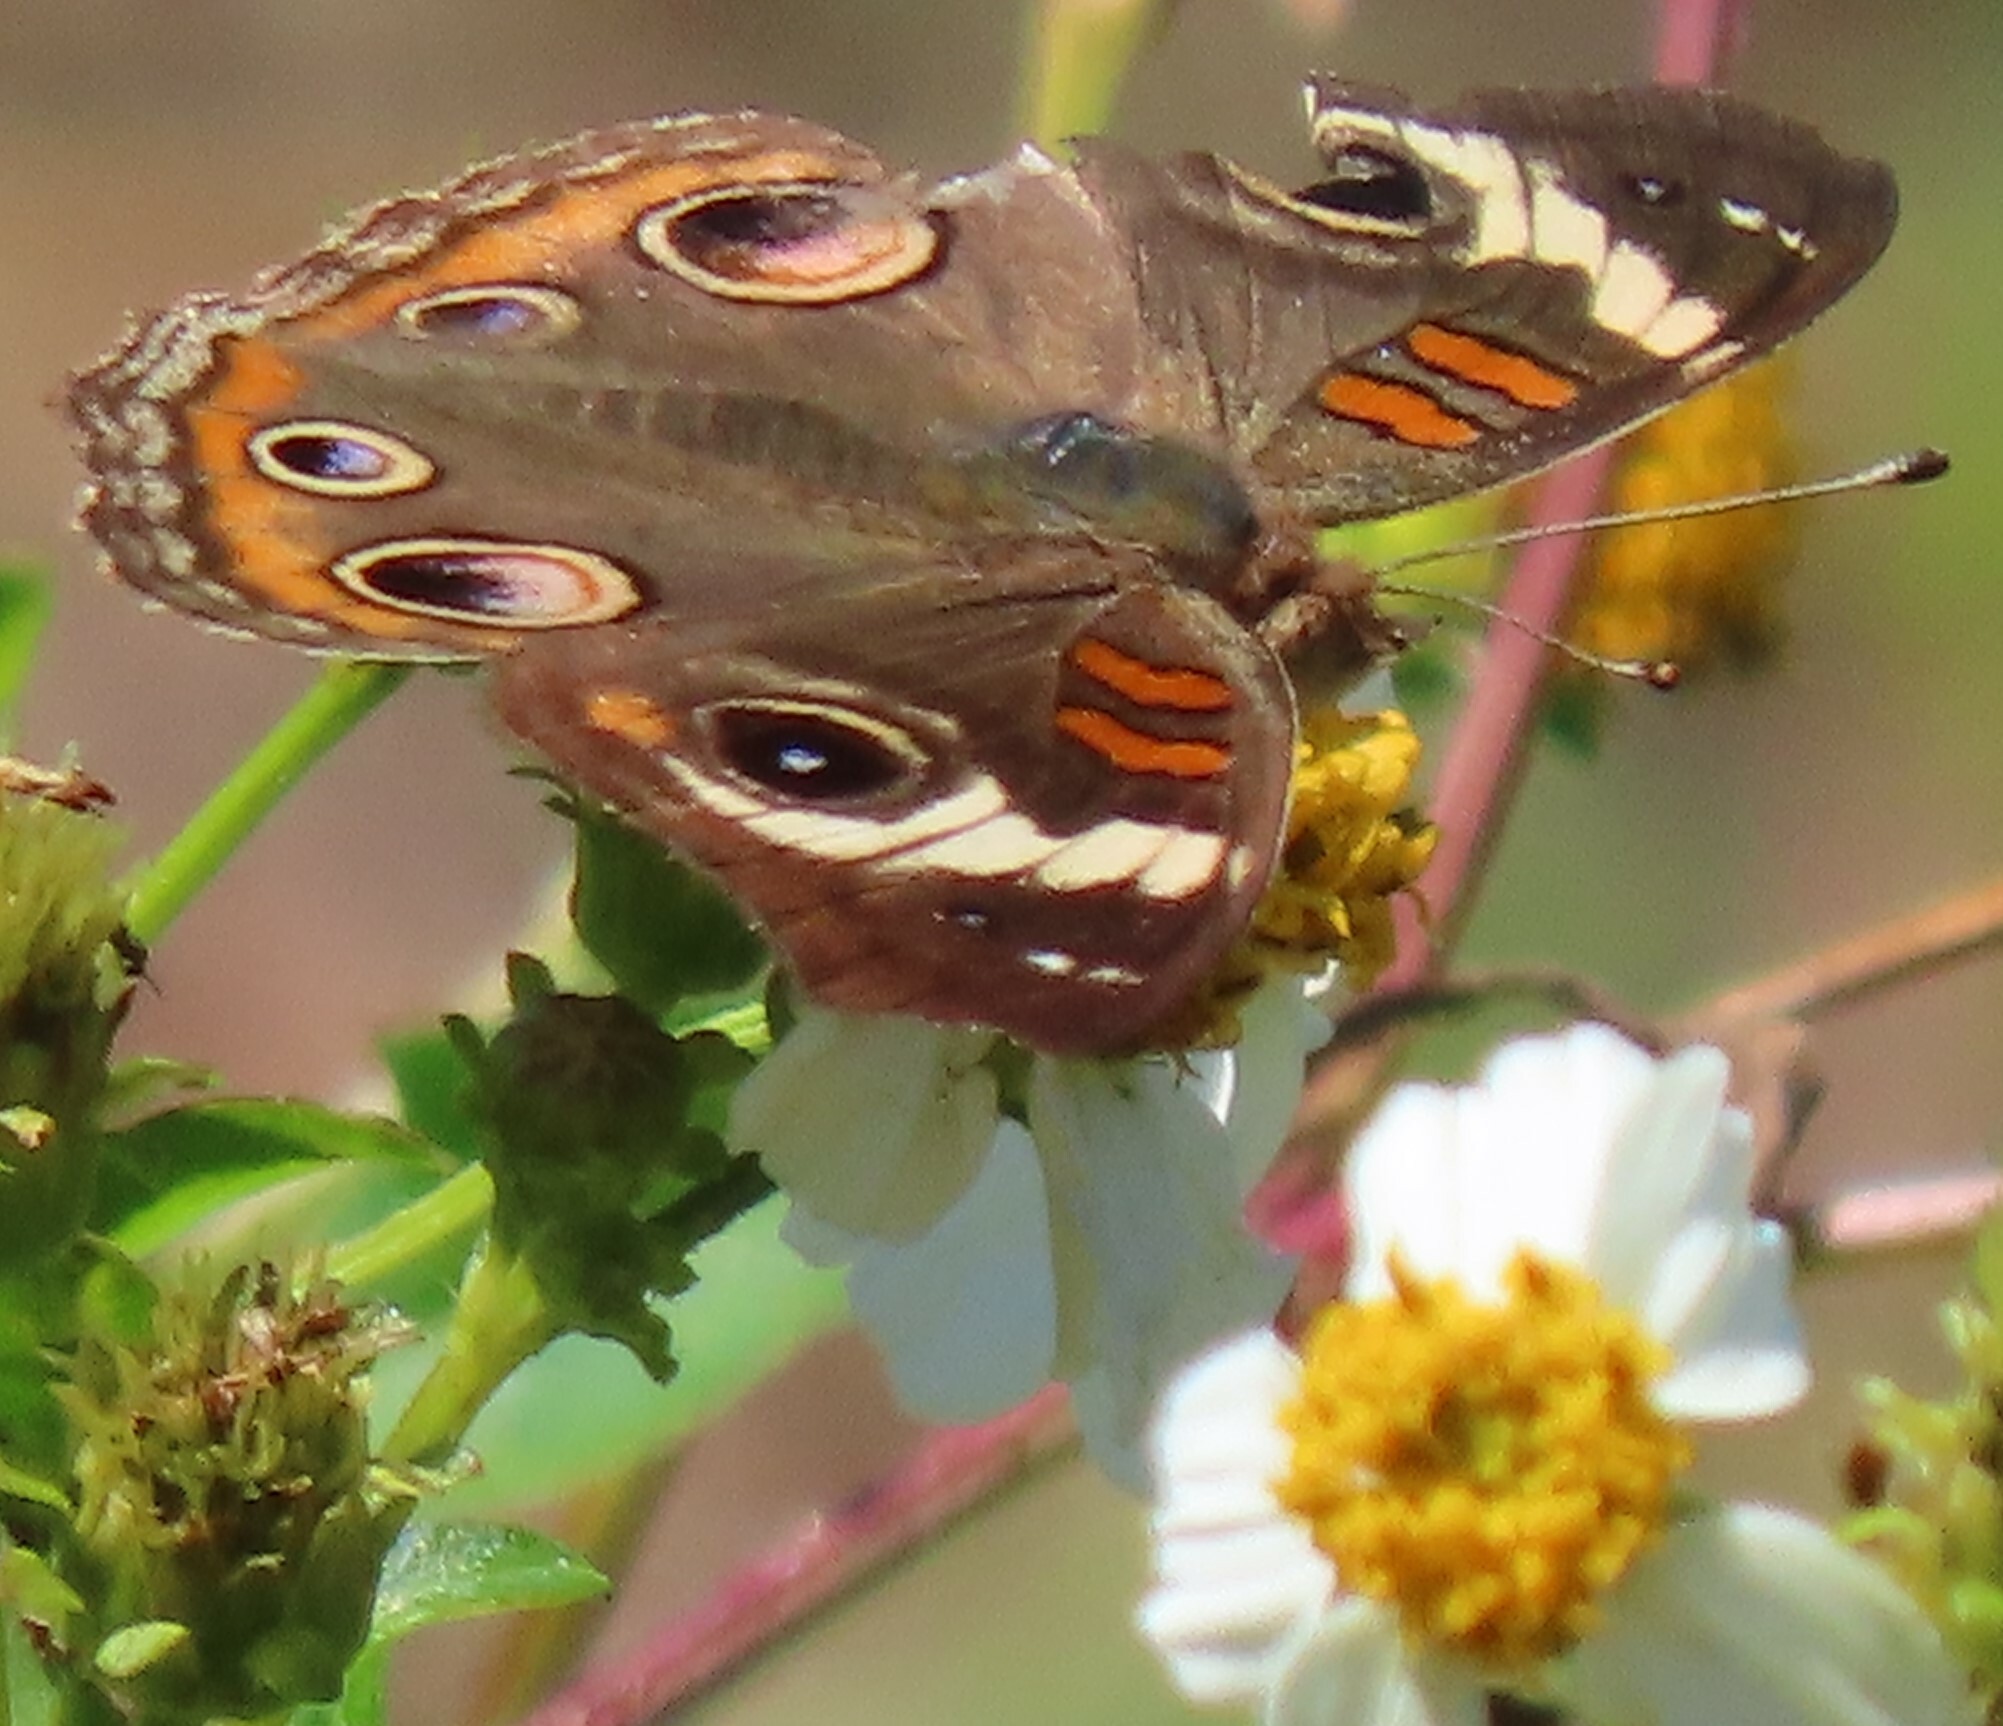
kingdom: Animalia
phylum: Arthropoda
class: Insecta
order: Lepidoptera
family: Nymphalidae
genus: Junonia
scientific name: Junonia coenia
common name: Common buckeye
